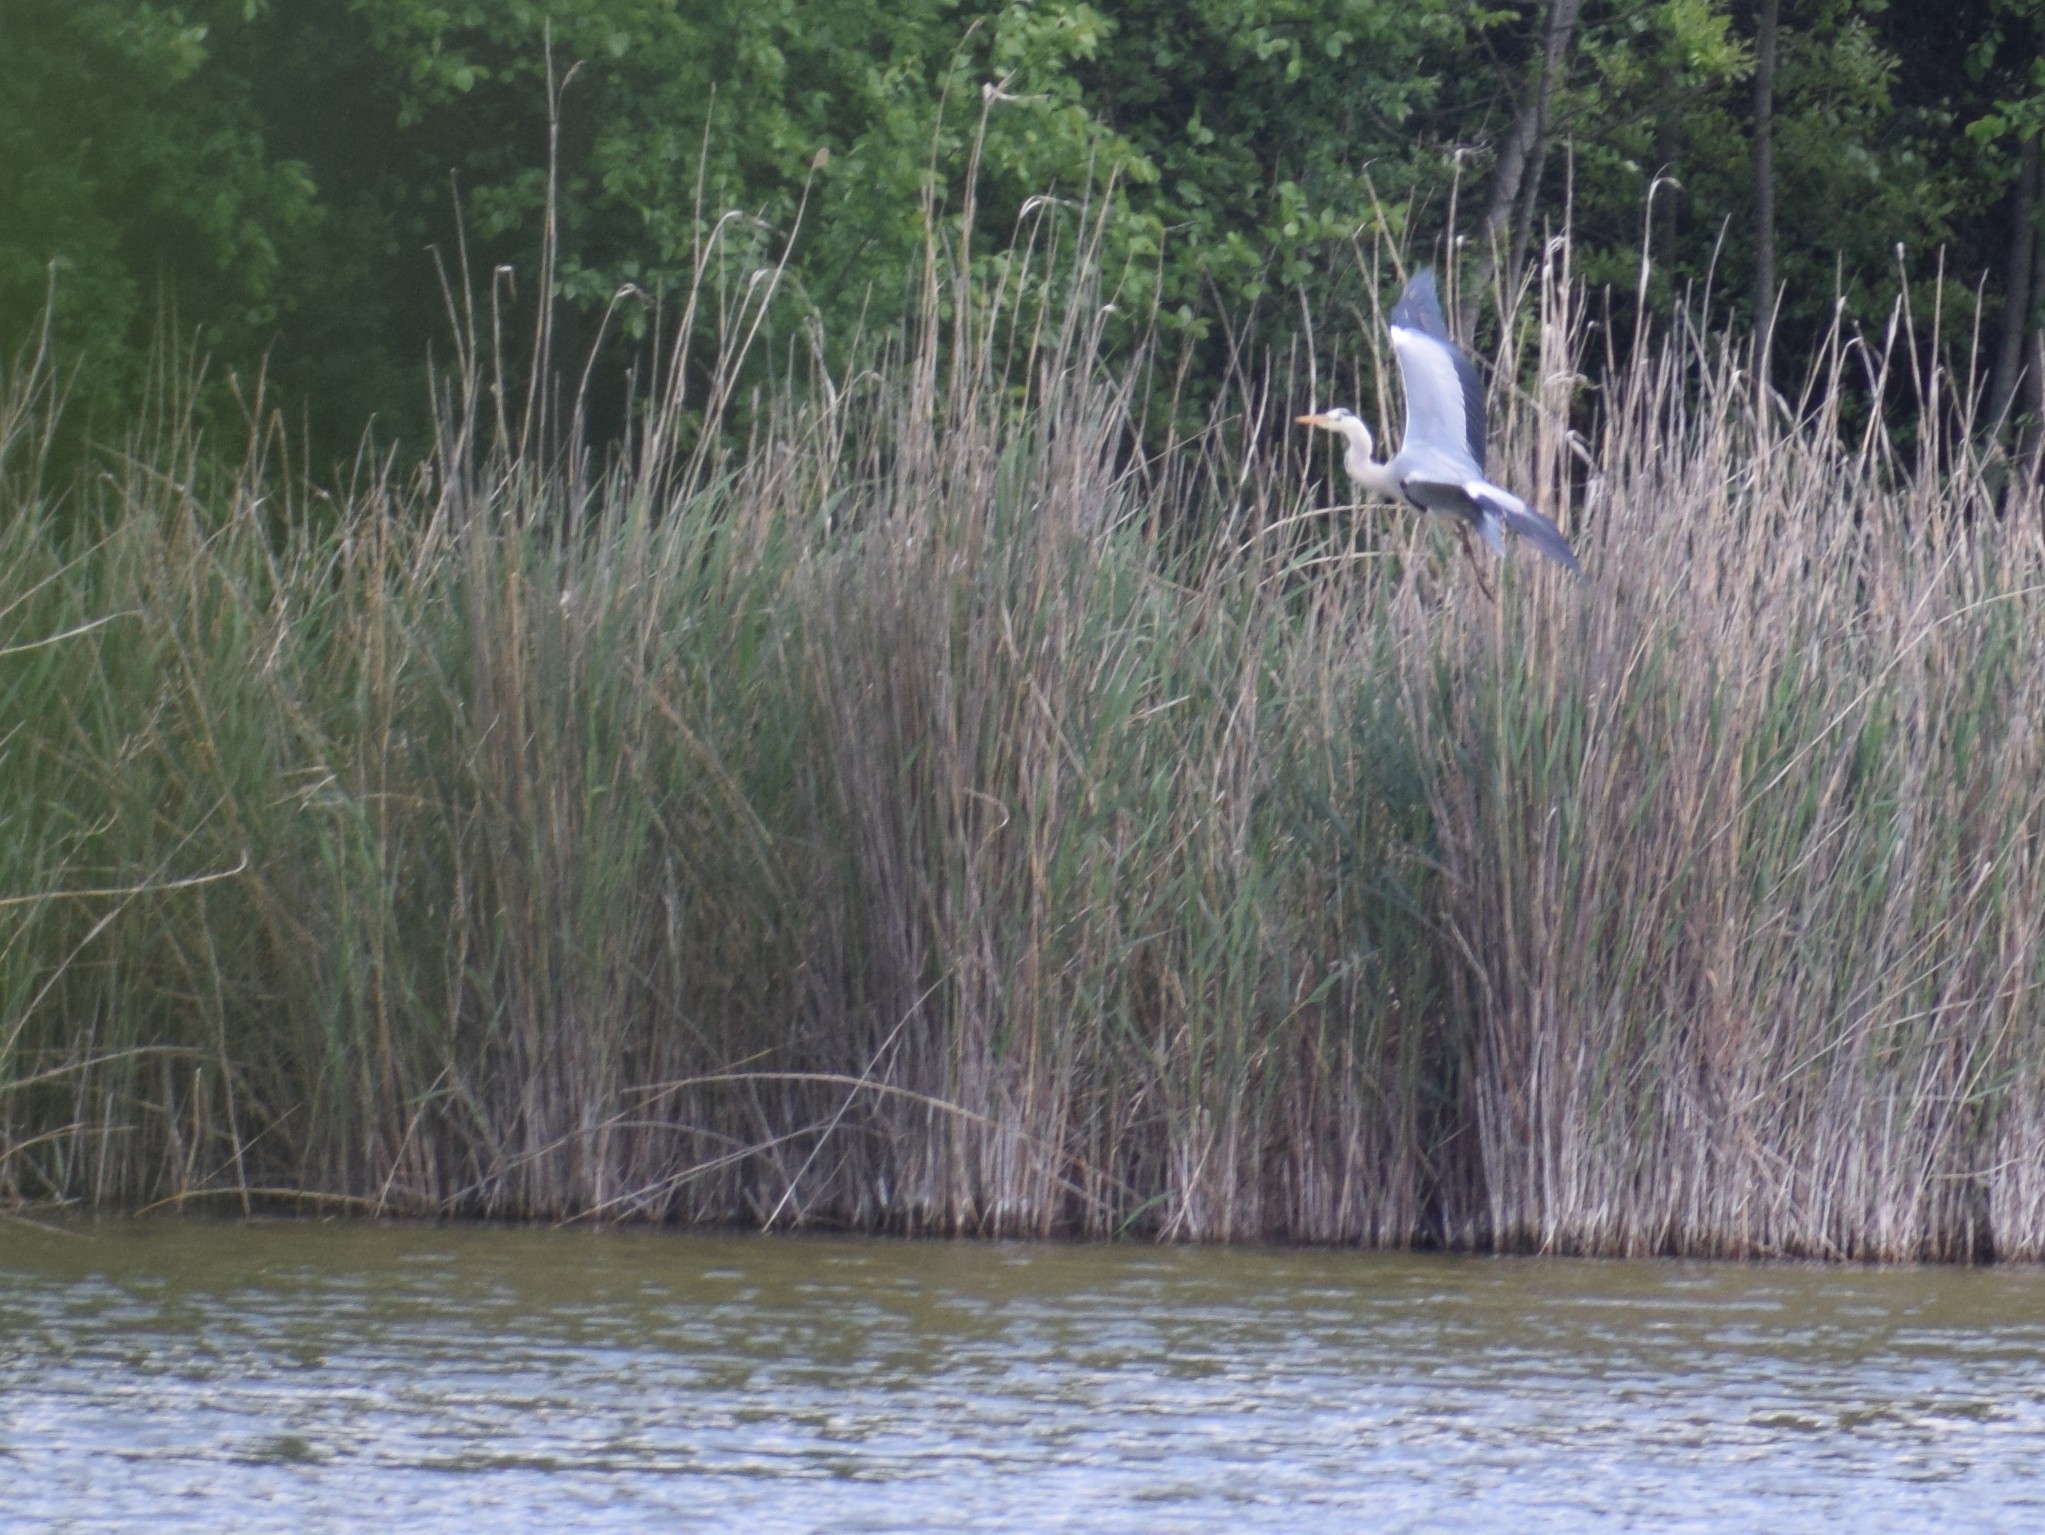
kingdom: Animalia
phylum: Chordata
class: Aves
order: Pelecaniformes
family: Ardeidae
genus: Ardea
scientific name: Ardea cinerea
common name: Grey heron
